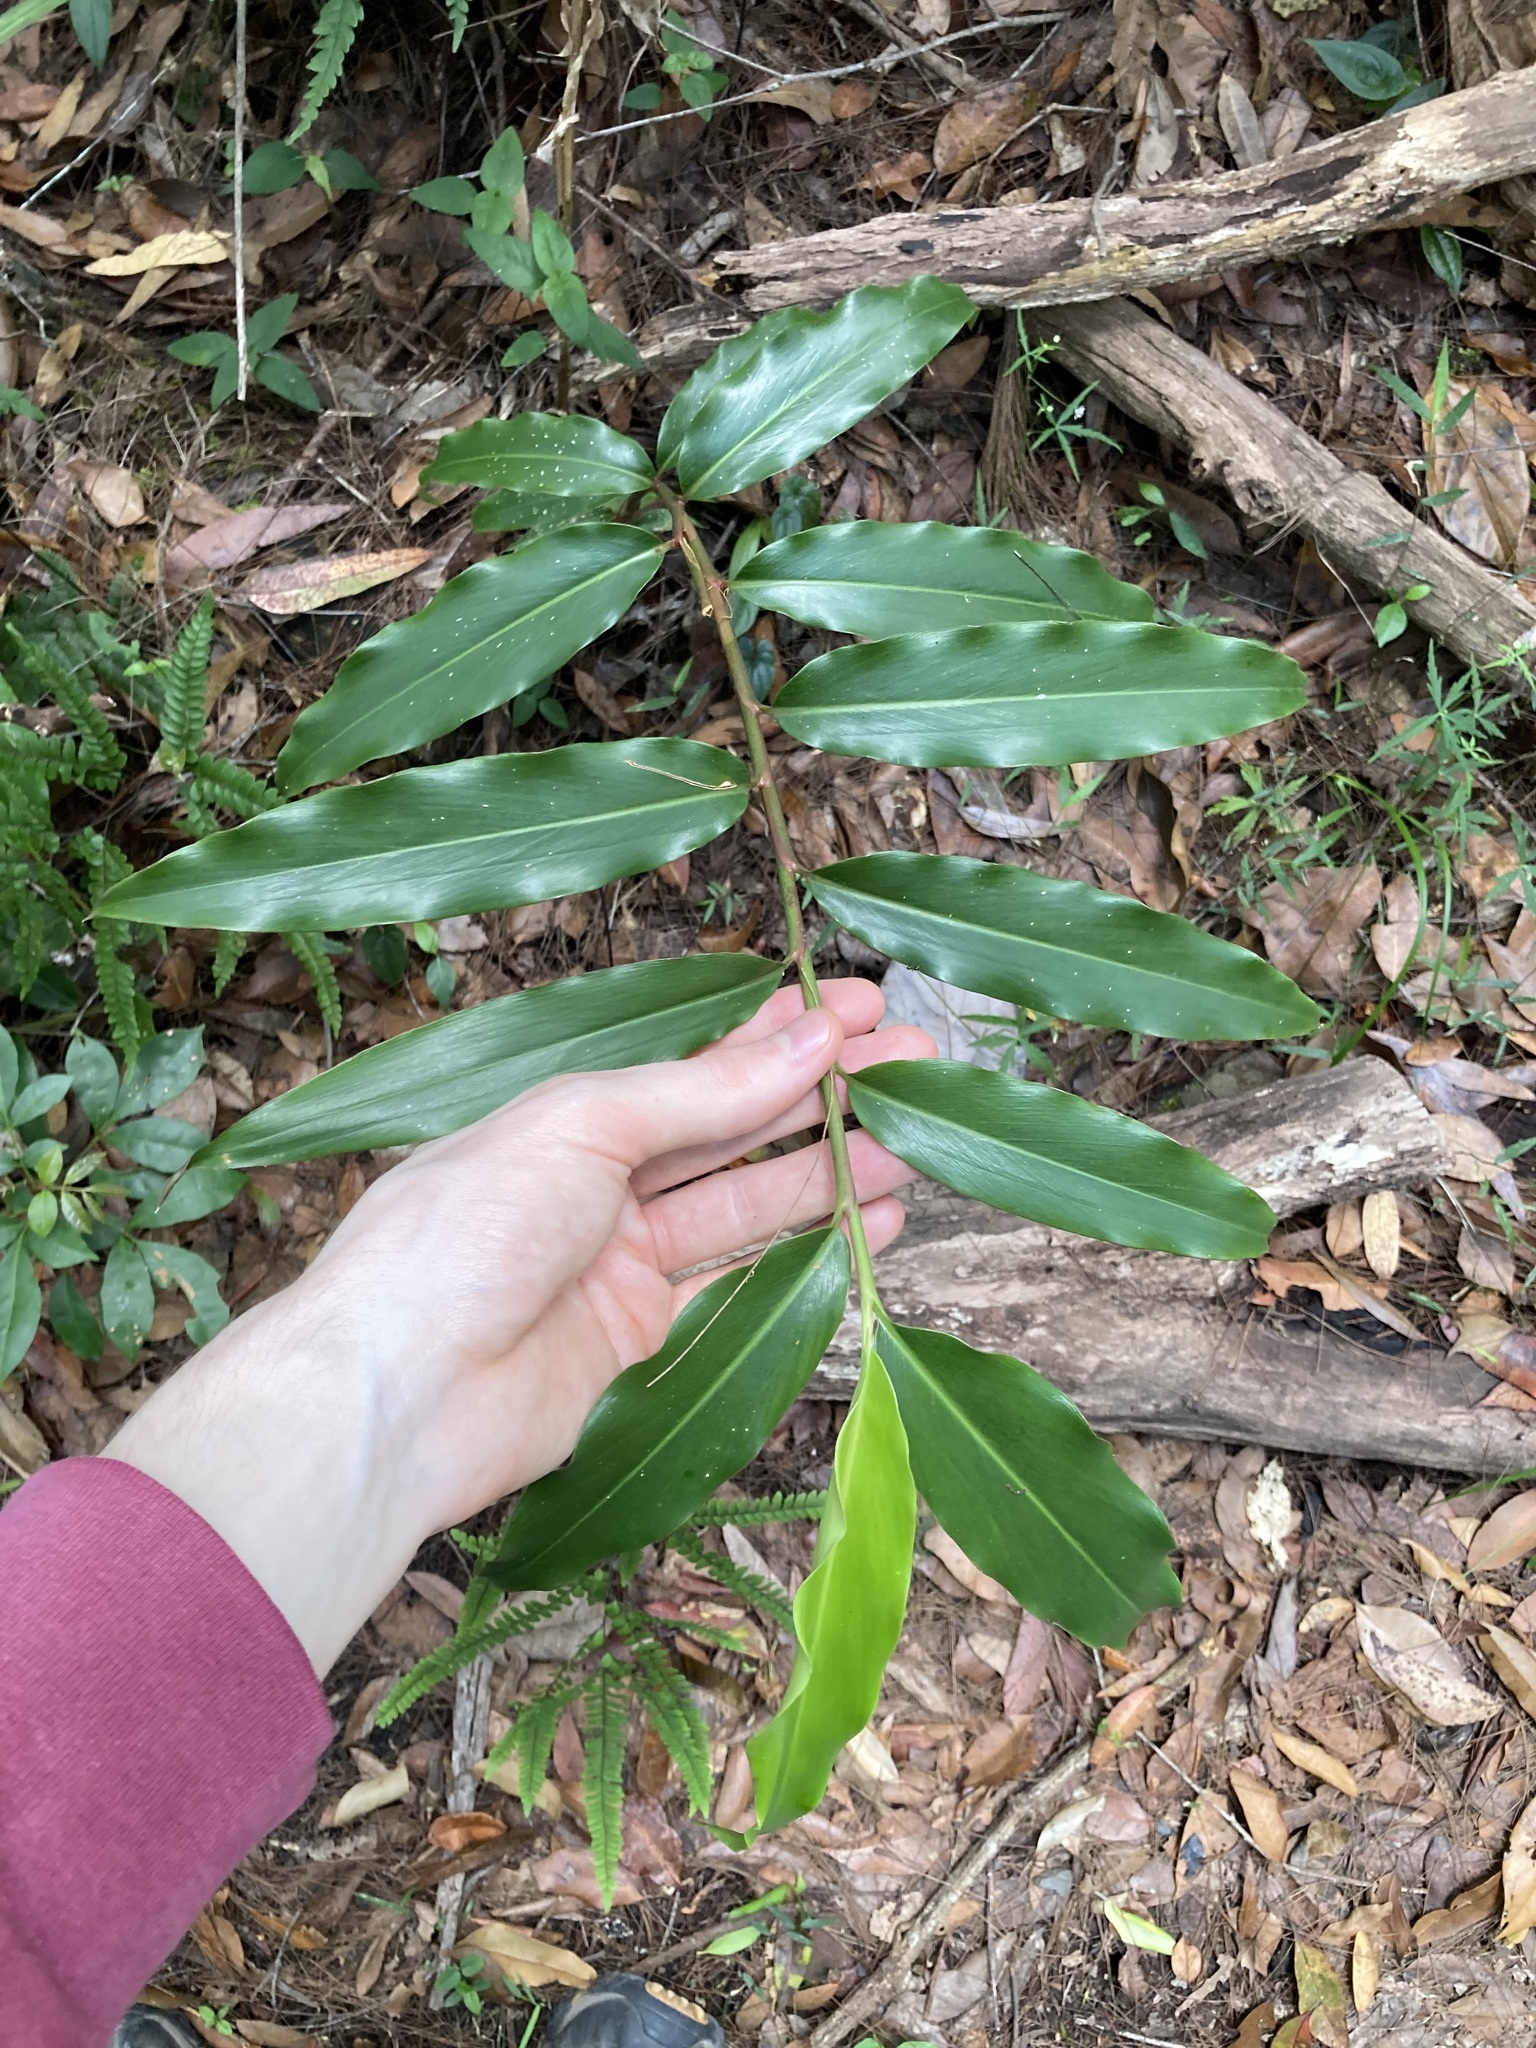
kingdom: Plantae
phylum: Tracheophyta
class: Liliopsida
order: Zingiberales
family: Zingiberaceae
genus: Alpinia
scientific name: Alpinia arundelliana
